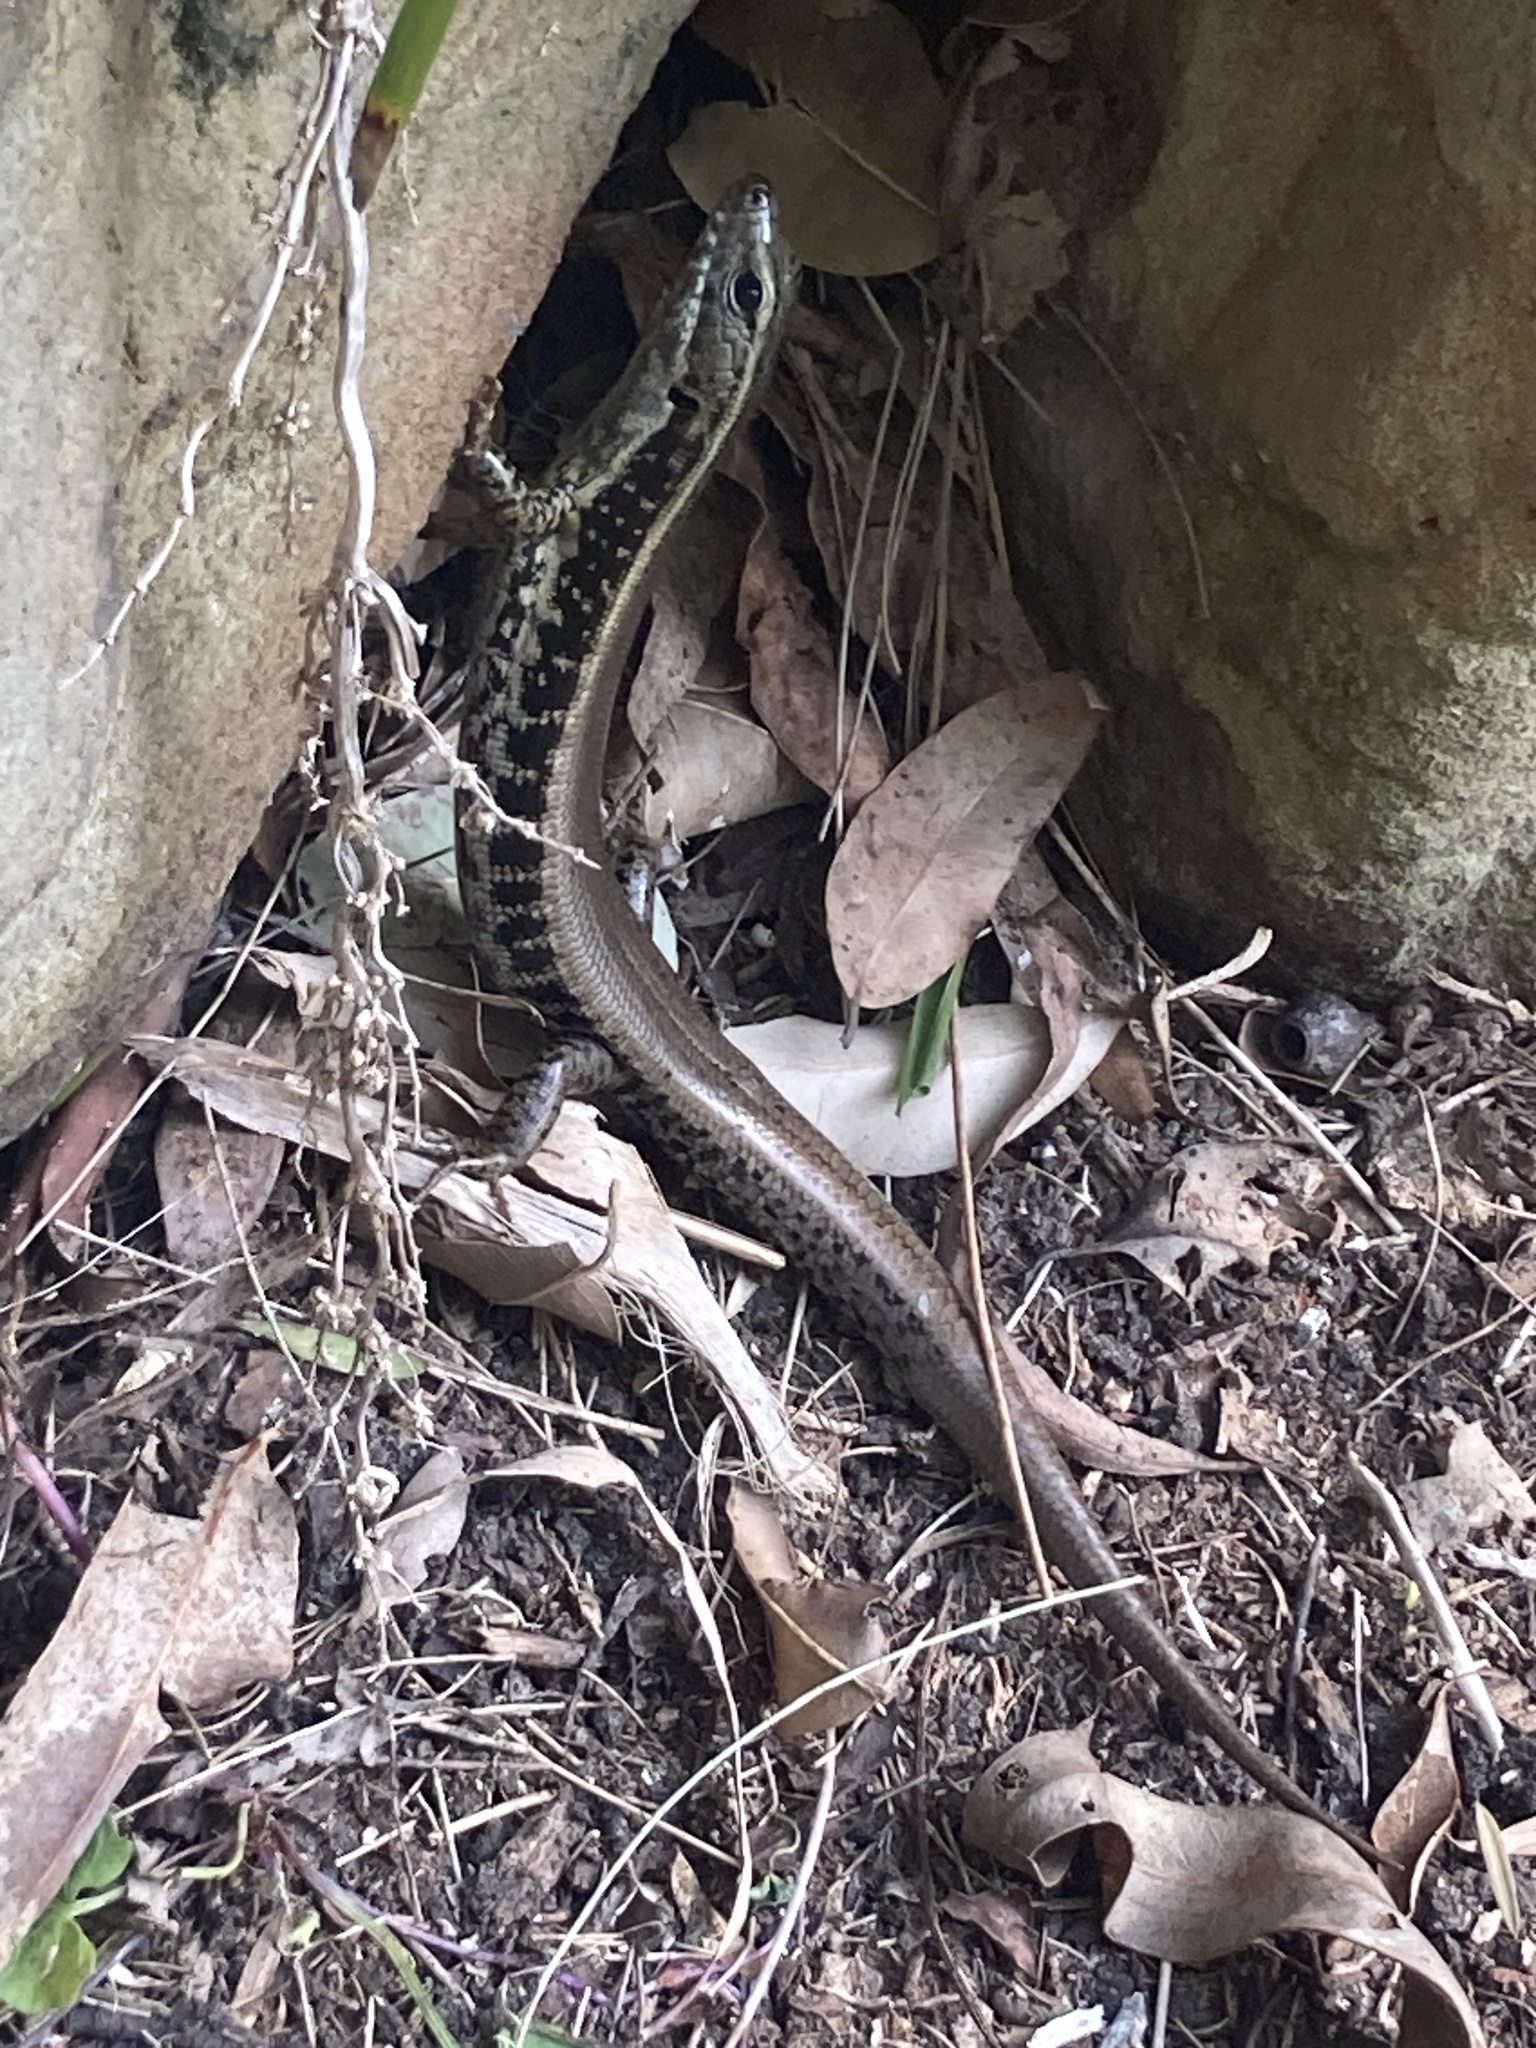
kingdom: Animalia
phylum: Chordata
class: Squamata
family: Scincidae
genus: Eulamprus
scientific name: Eulamprus quoyii
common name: Eastern water skink
